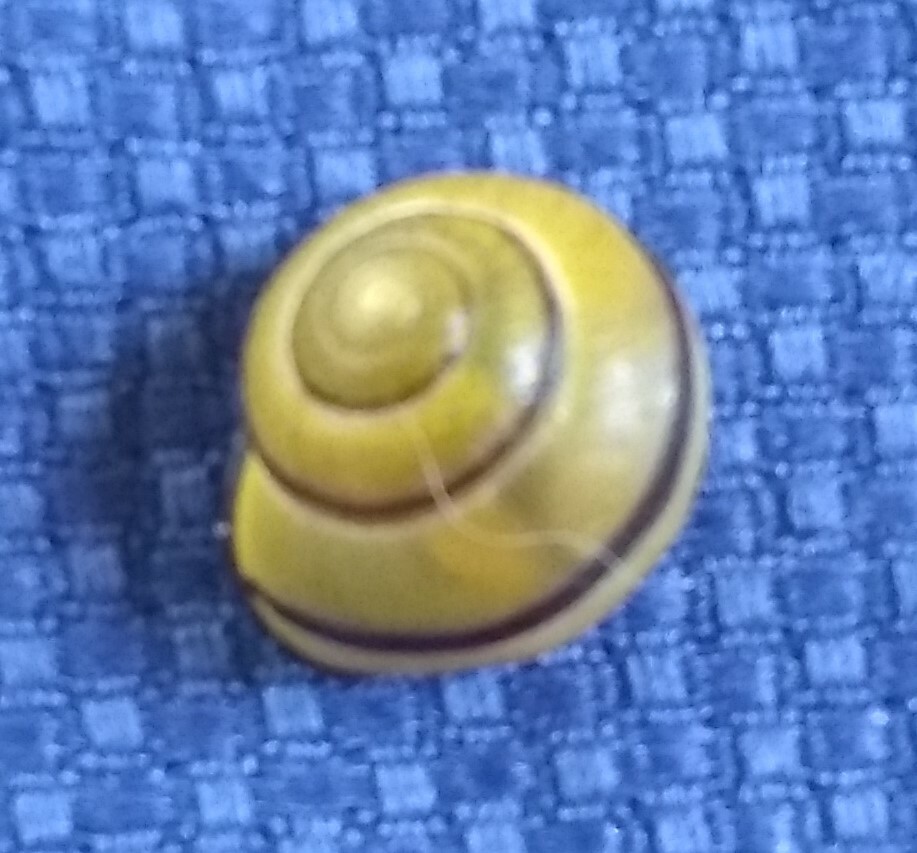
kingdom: Animalia
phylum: Mollusca
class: Gastropoda
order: Stylommatophora
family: Helicidae
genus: Cepaea
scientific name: Cepaea nemoralis
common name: Grovesnail
